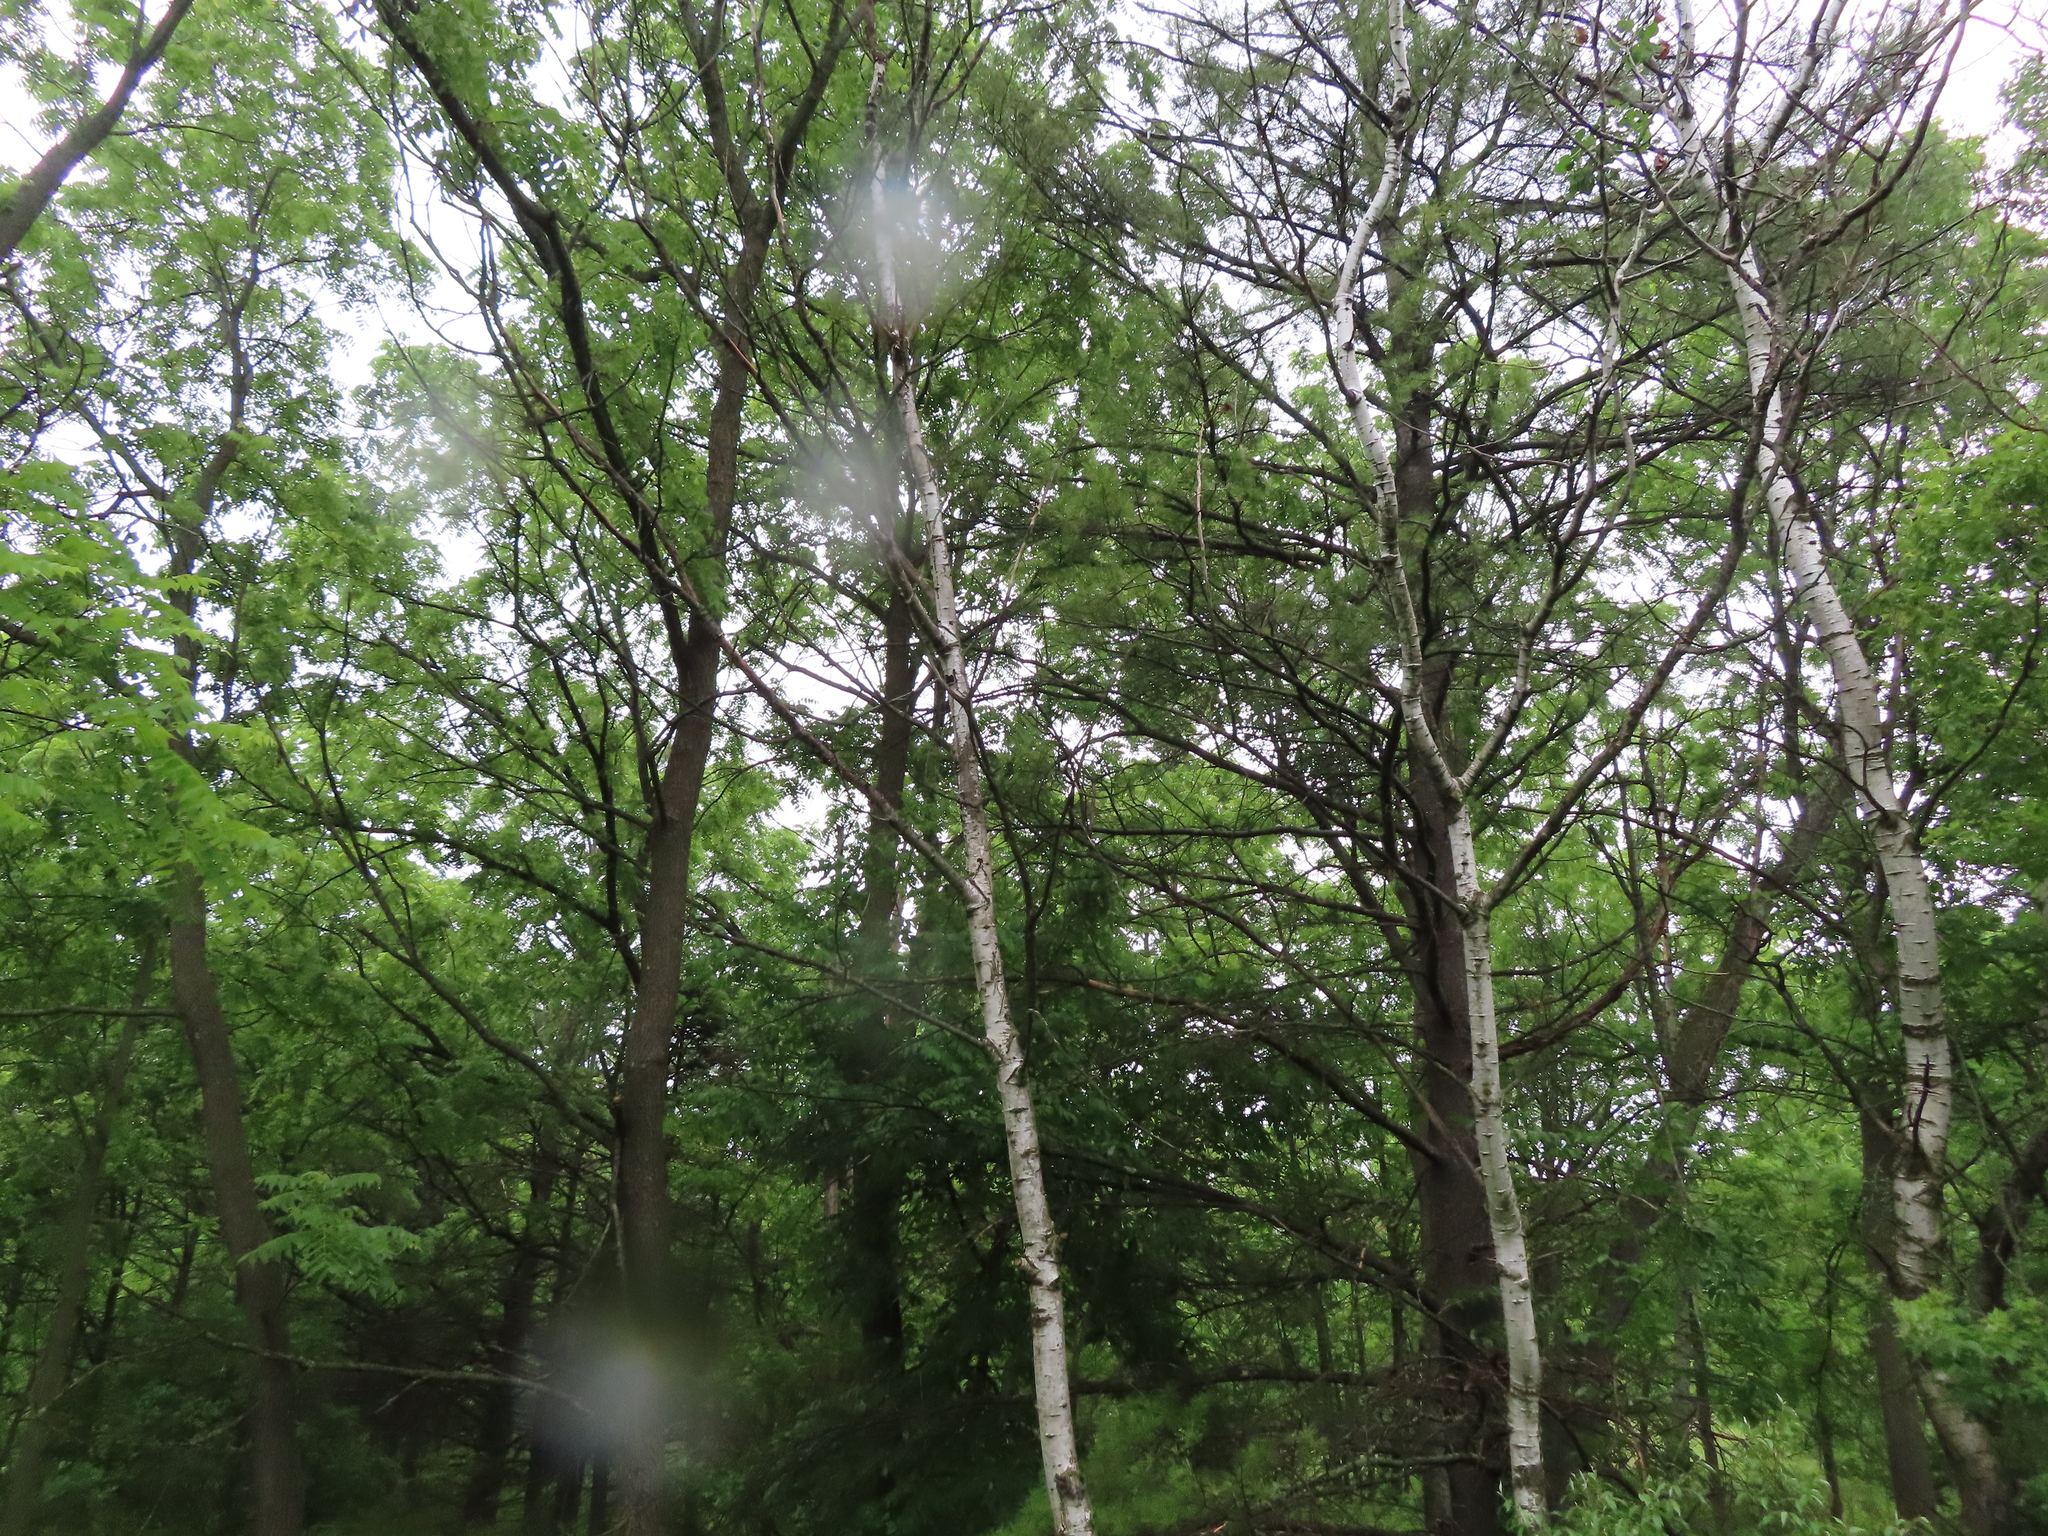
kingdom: Plantae
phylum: Tracheophyta
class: Magnoliopsida
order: Malpighiales
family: Salicaceae
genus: Populus
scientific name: Populus tremuloides
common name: Quaking aspen
